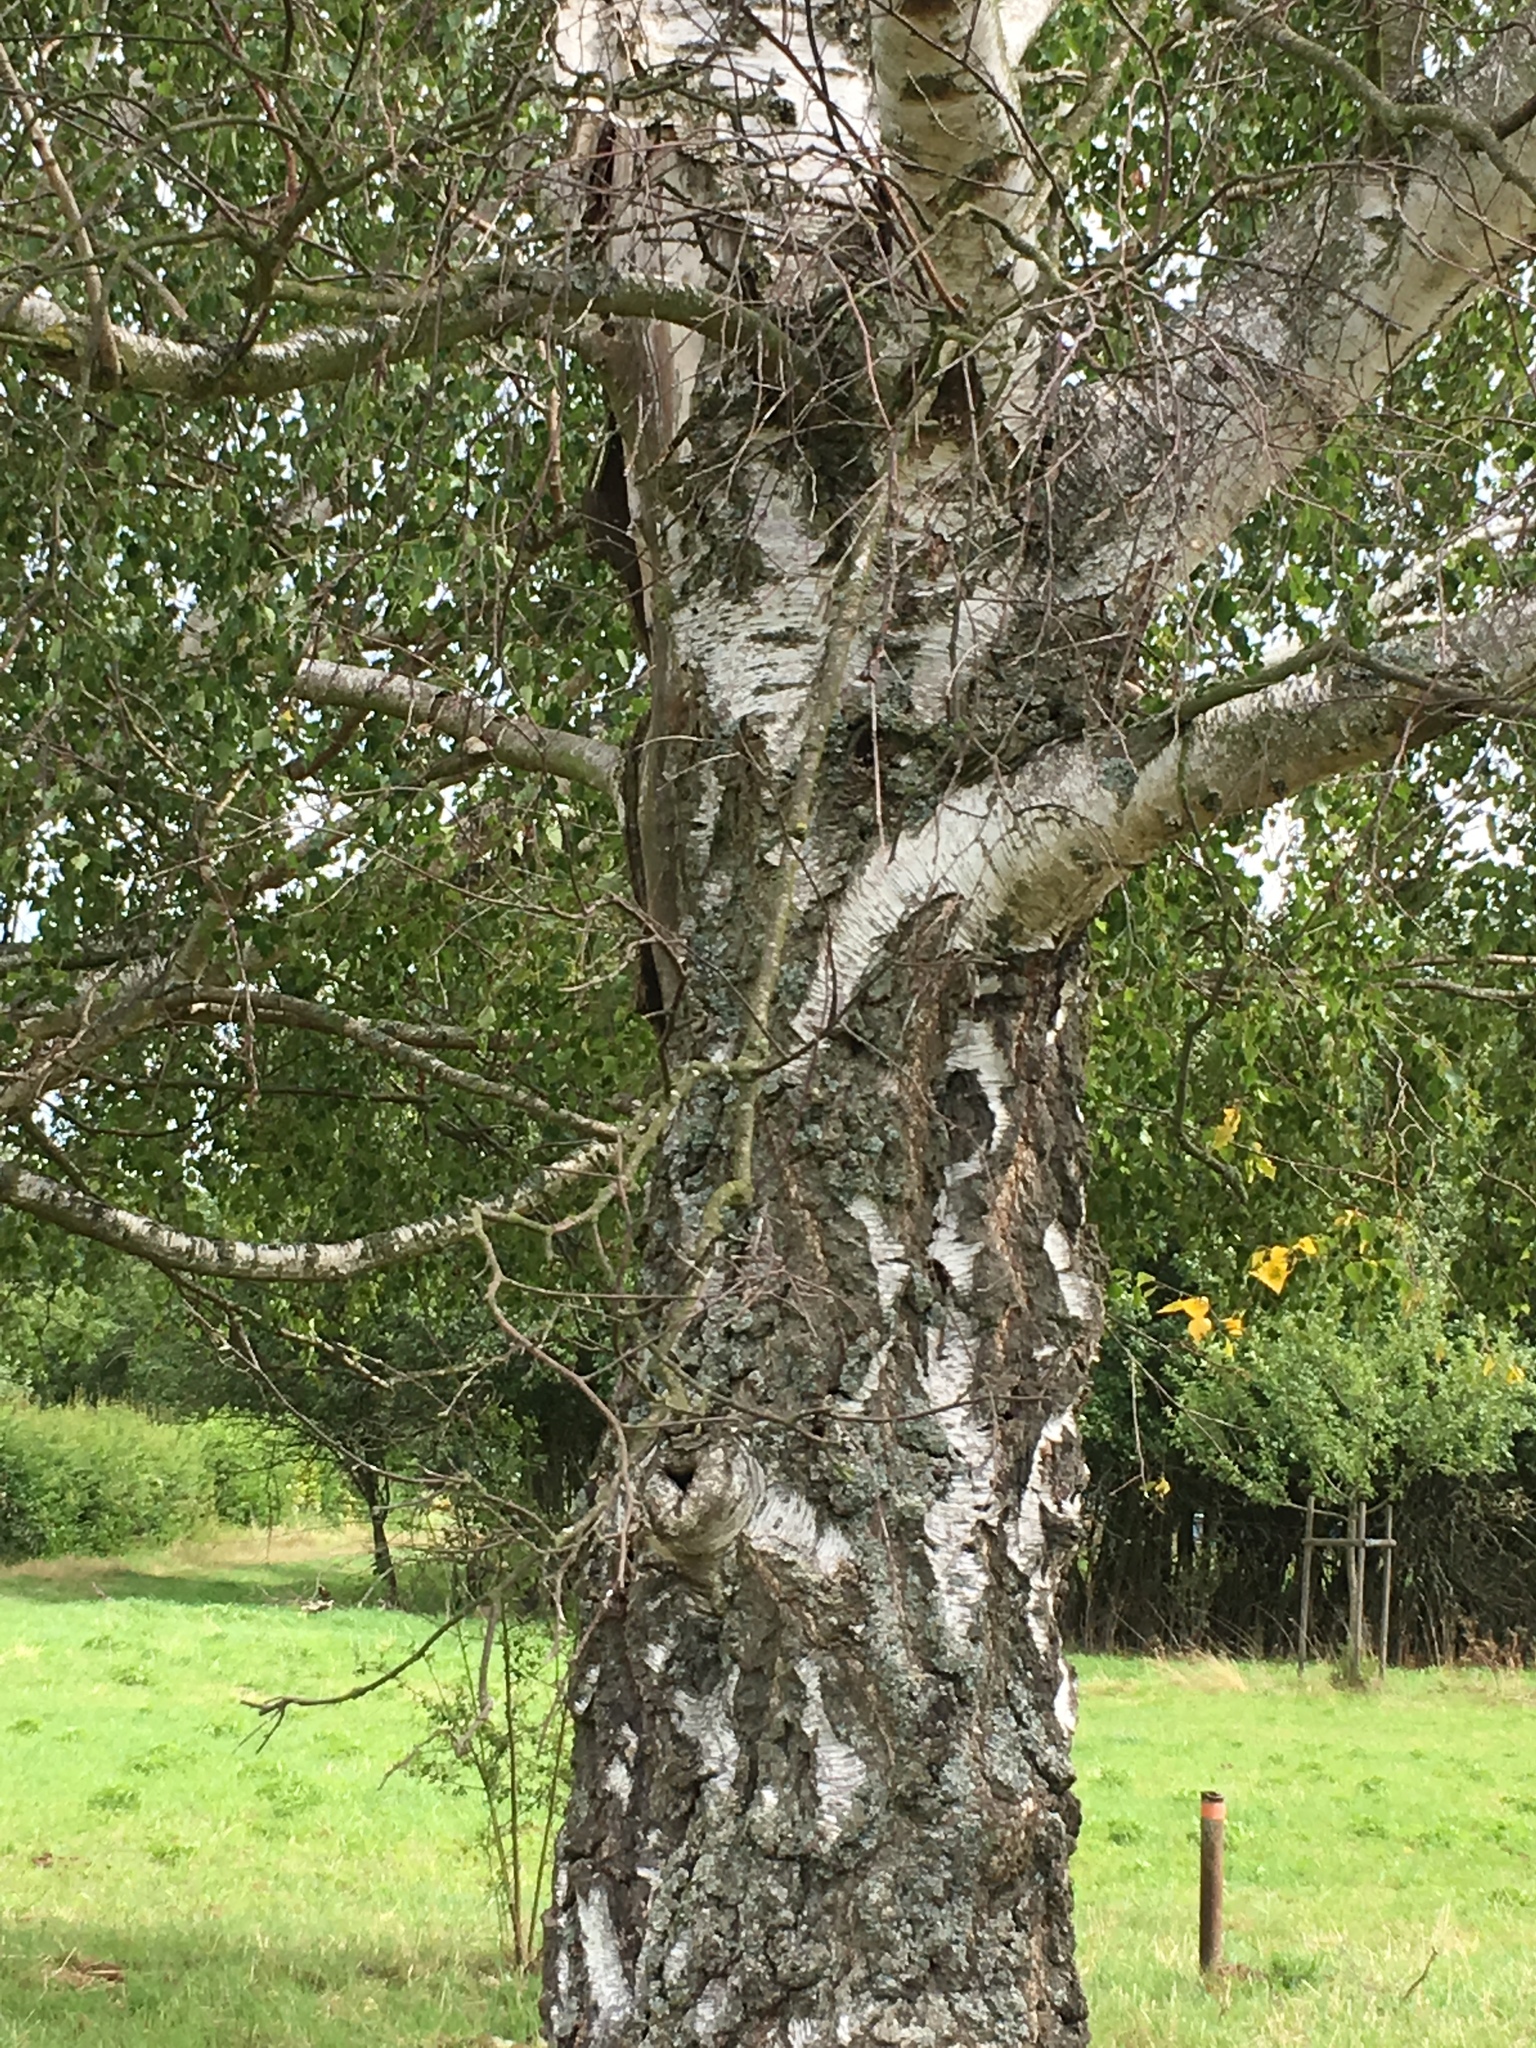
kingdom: Plantae
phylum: Tracheophyta
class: Magnoliopsida
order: Fagales
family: Betulaceae
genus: Betula
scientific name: Betula pendula
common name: Silver birch
